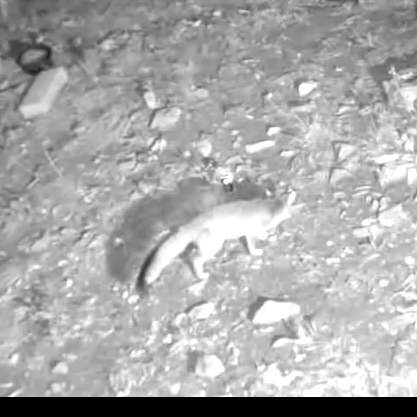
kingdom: Animalia
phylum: Chordata
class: Mammalia
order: Carnivora
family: Canidae
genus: Urocyon
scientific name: Urocyon cinereoargenteus
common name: Gray fox
